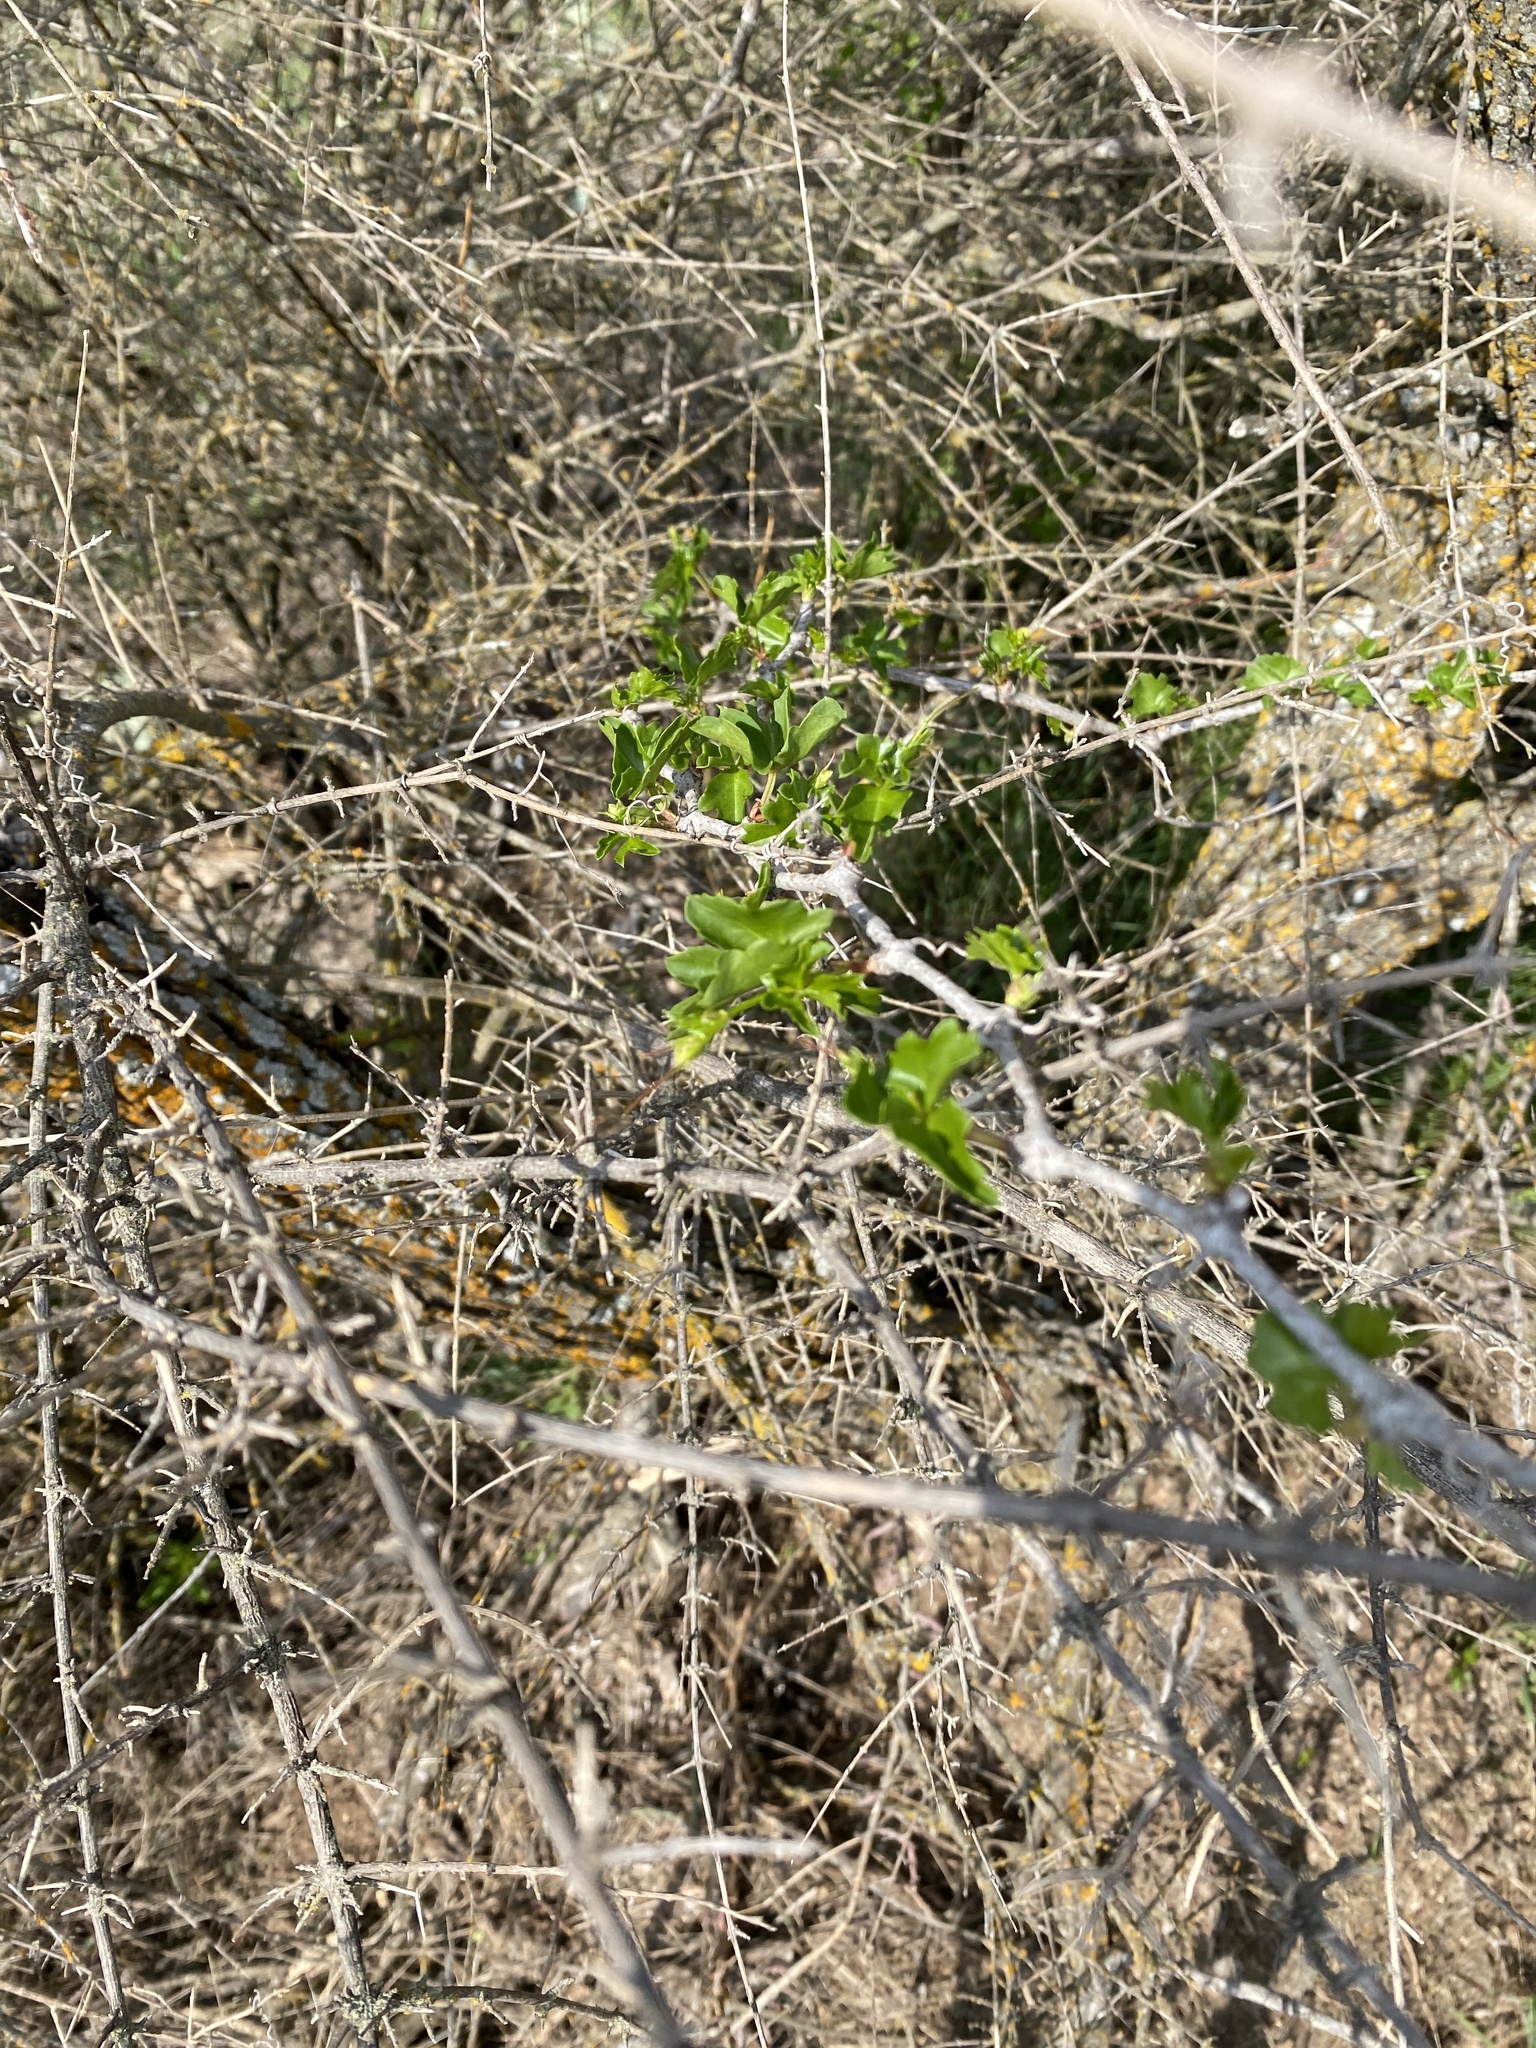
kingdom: Plantae
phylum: Tracheophyta
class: Magnoliopsida
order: Lamiales
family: Verbenaceae
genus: Aloysia
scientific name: Aloysia gratissima
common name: Common bee-brush
